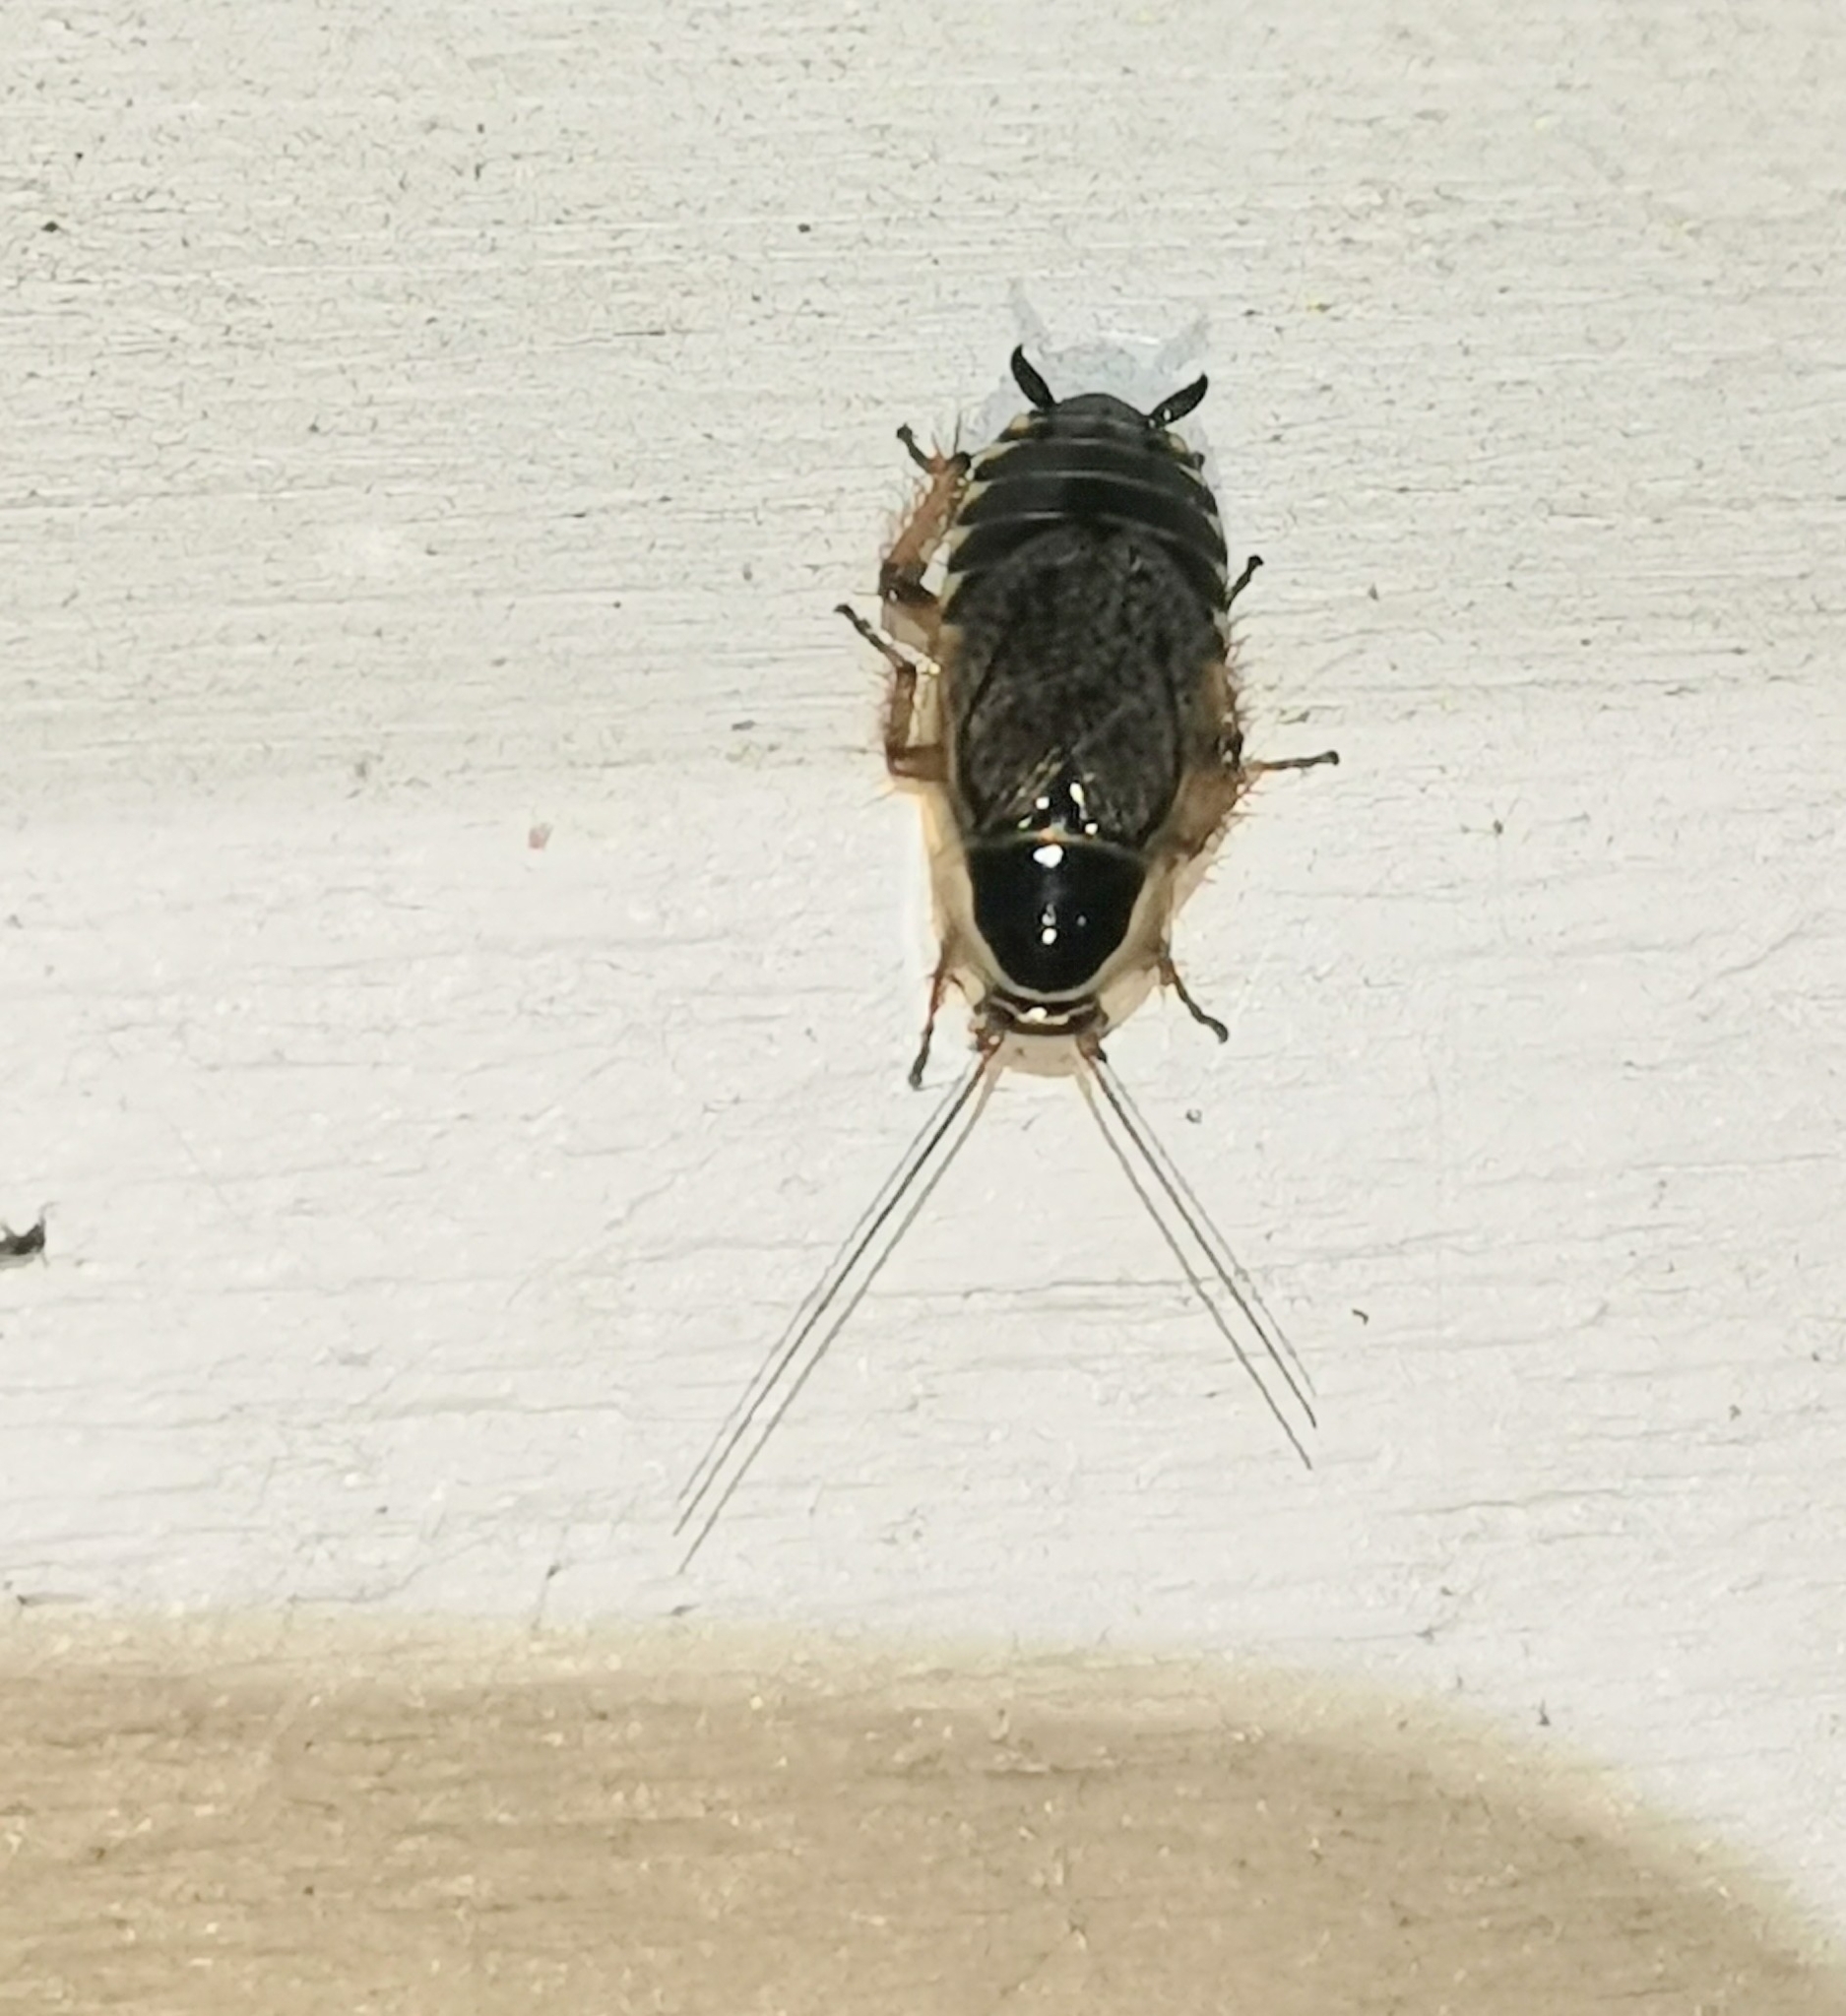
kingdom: Animalia
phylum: Arthropoda
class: Insecta
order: Blattodea
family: Ectobiidae
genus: Ectobius
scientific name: Ectobius sylvestris
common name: Forest cockroach
